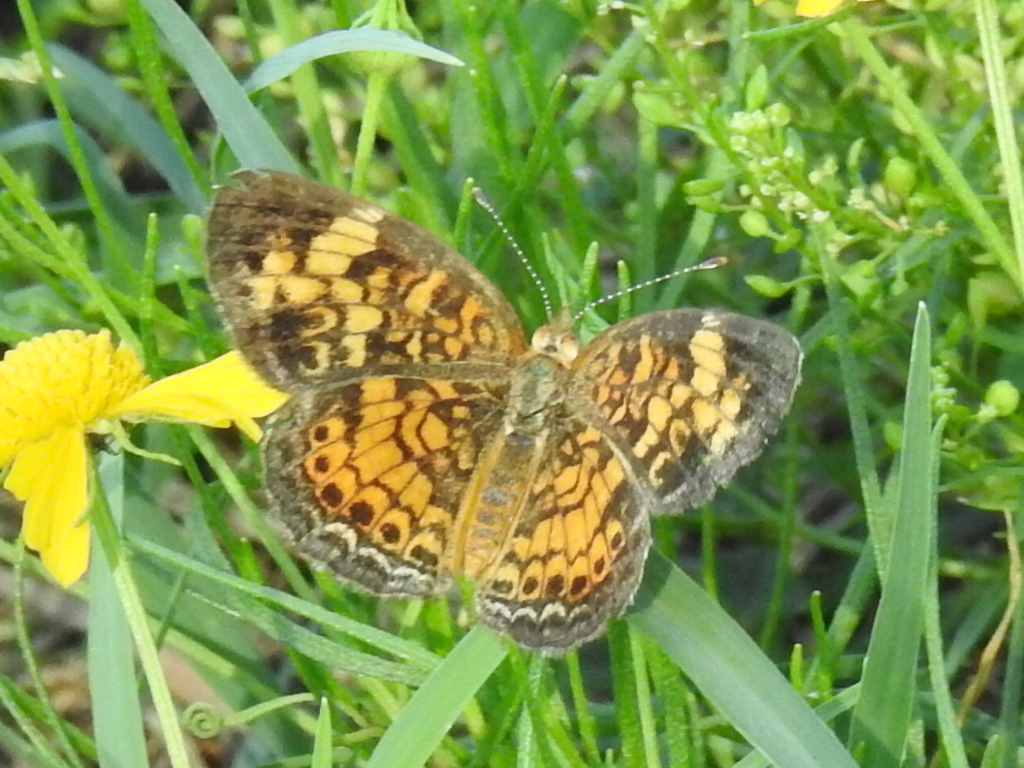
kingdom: Animalia
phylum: Arthropoda
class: Insecta
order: Lepidoptera
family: Nymphalidae
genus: Phyciodes
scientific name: Phyciodes tharos
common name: Pearl crescent
